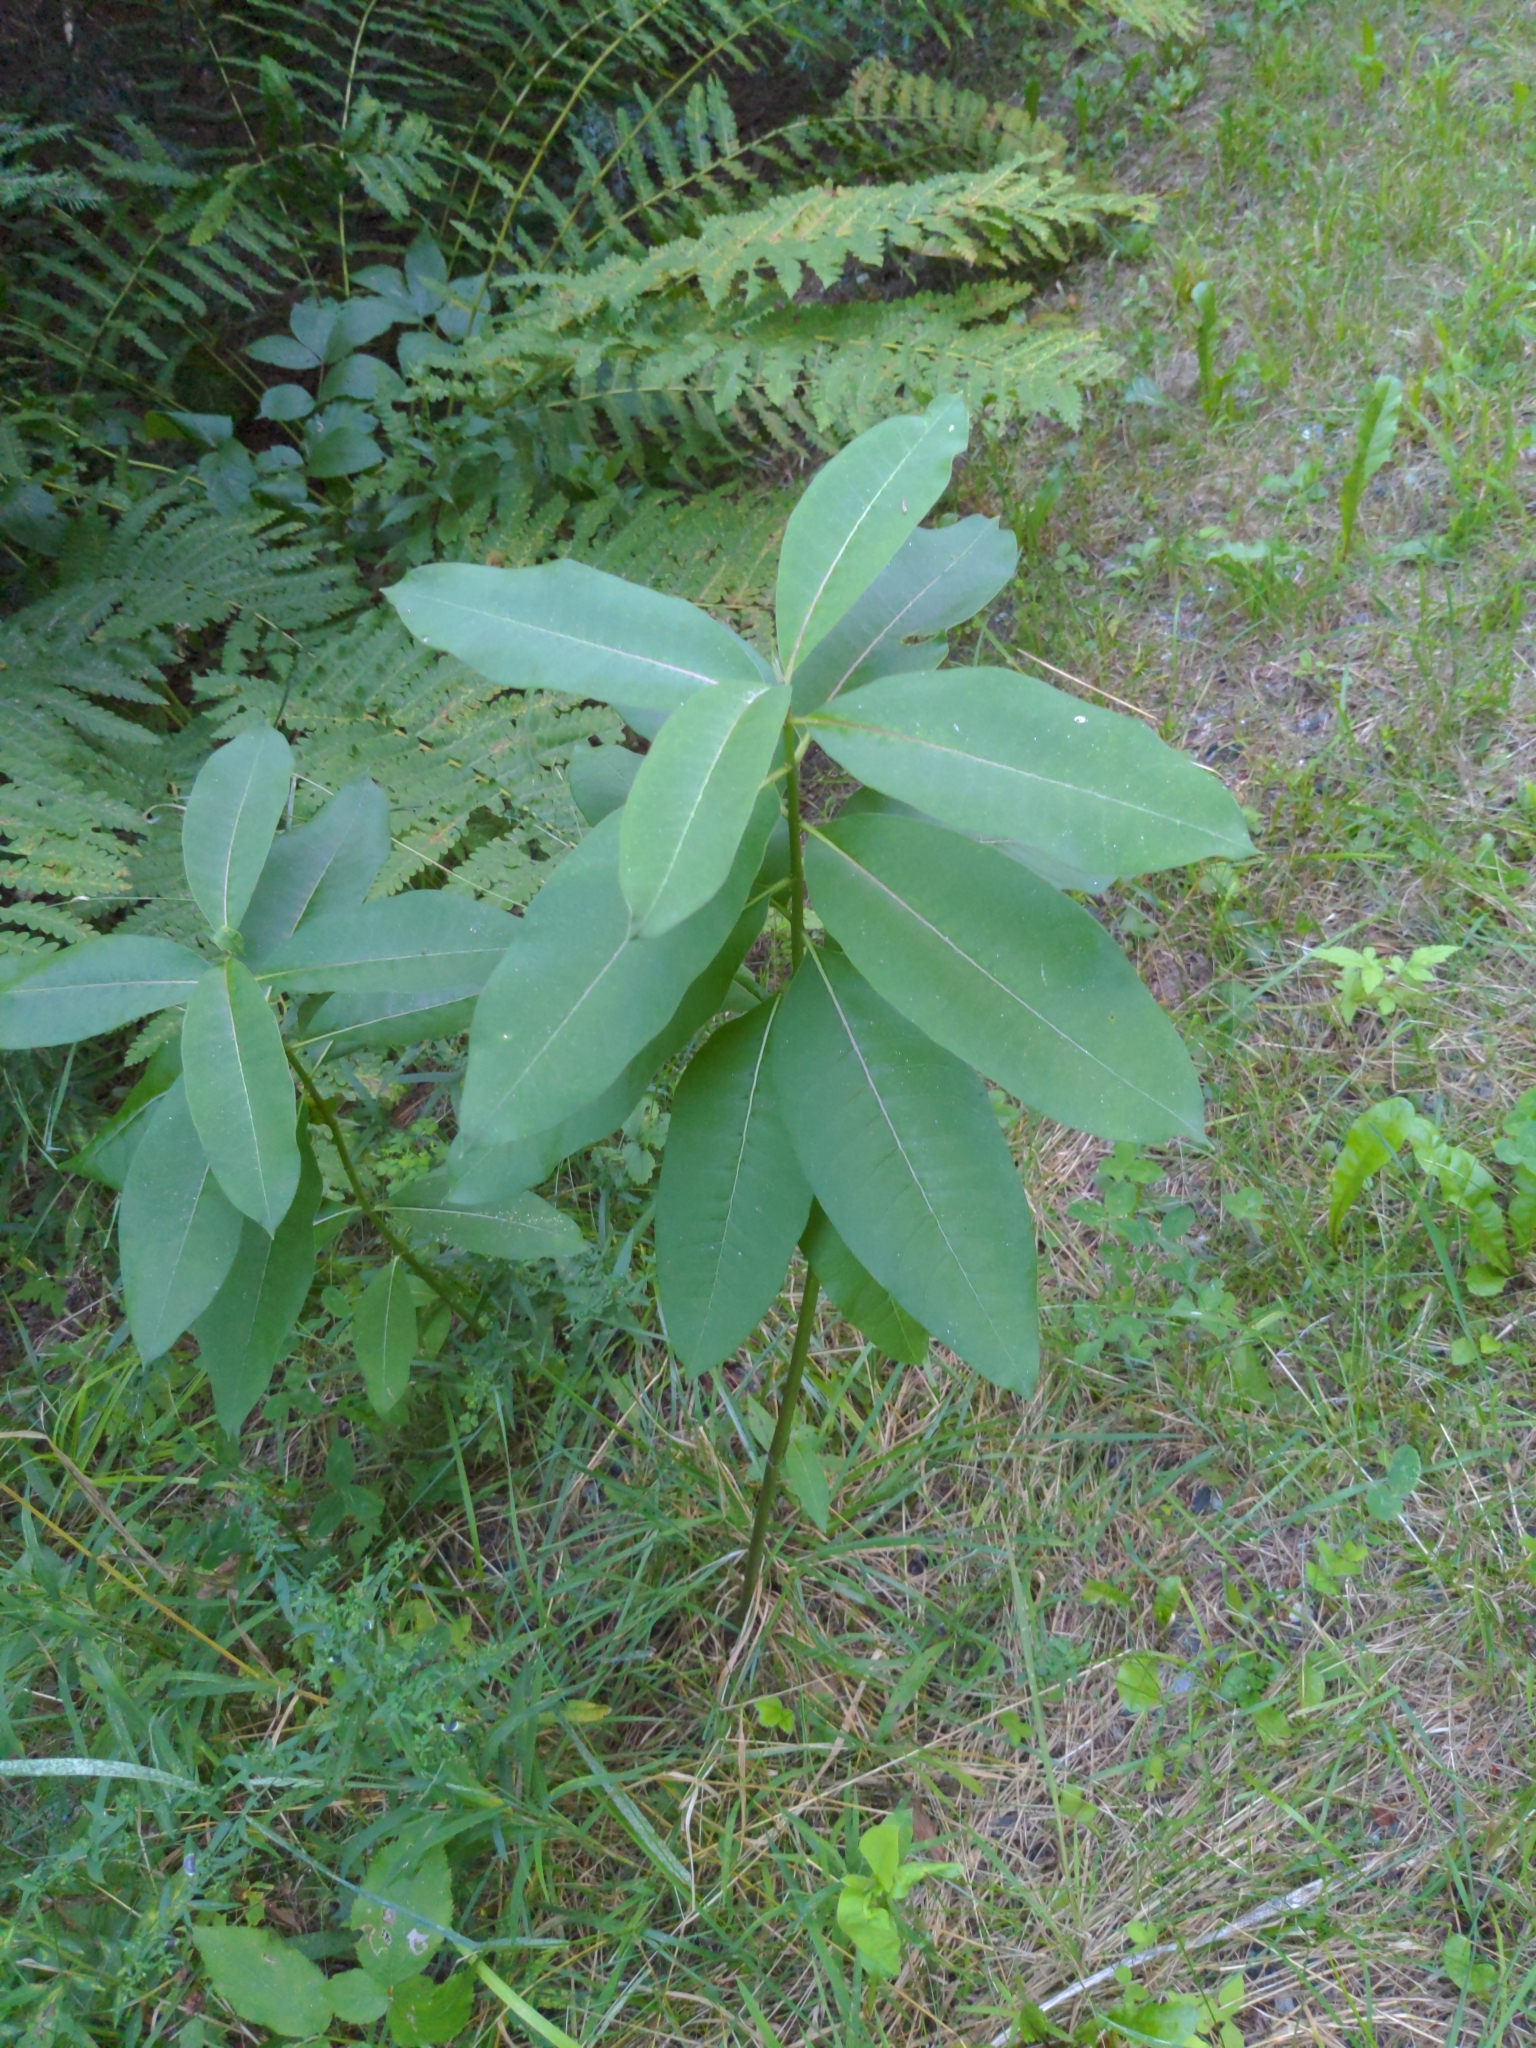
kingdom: Plantae
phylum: Tracheophyta
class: Magnoliopsida
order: Gentianales
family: Apocynaceae
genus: Asclepias
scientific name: Asclepias syriaca
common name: Common milkweed
